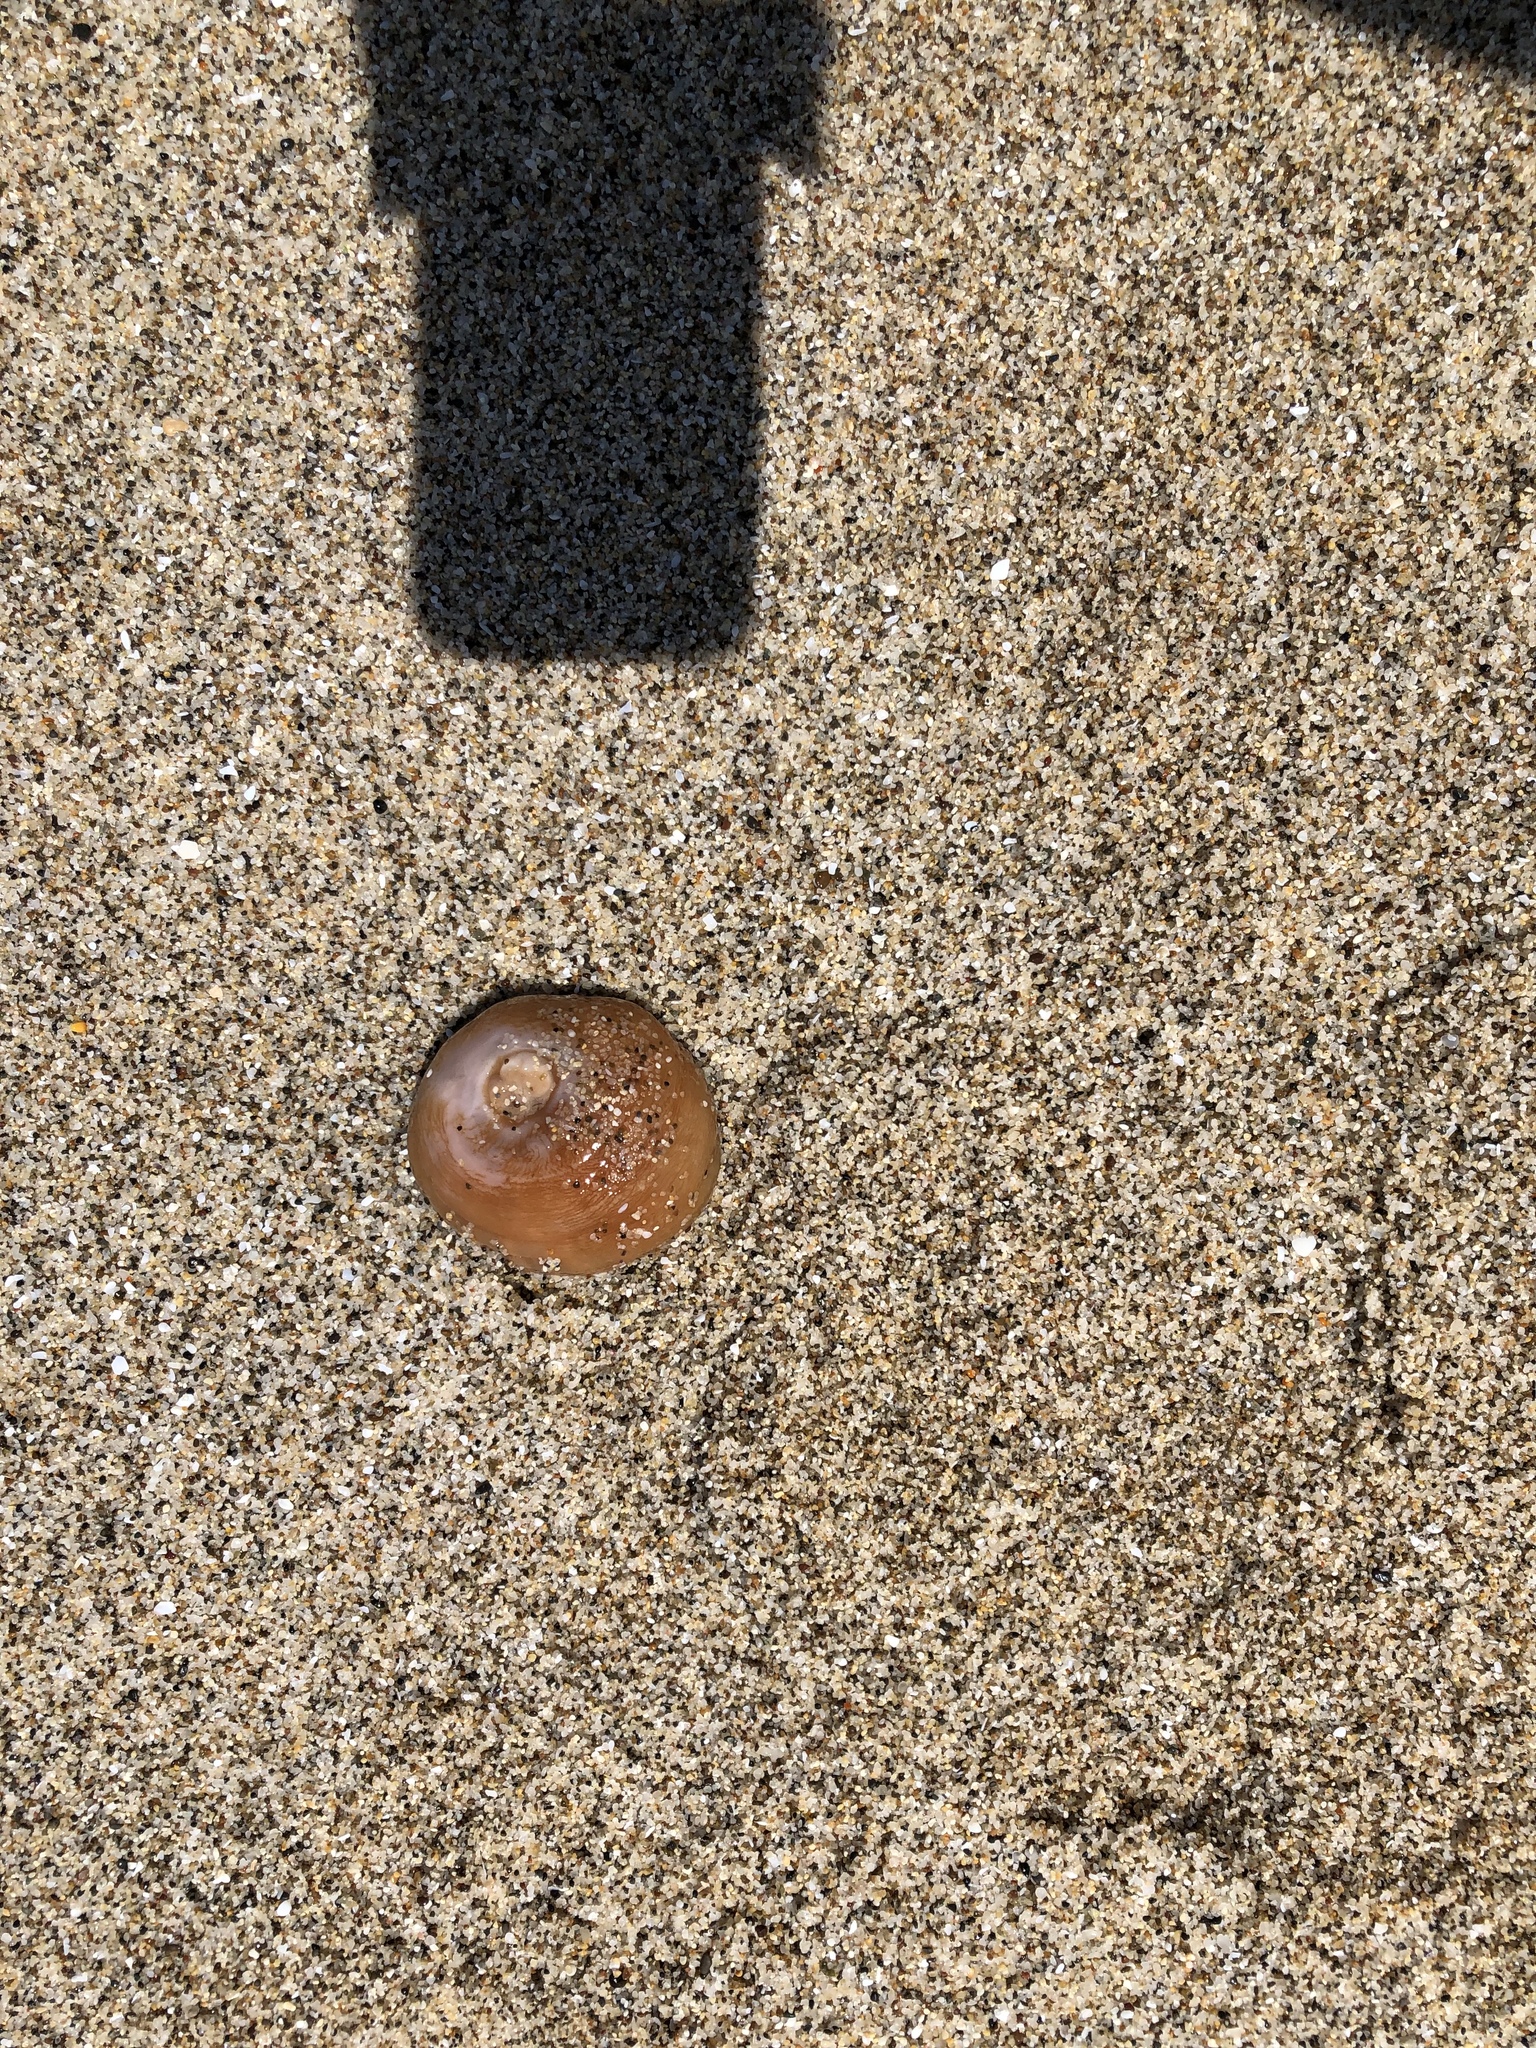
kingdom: Animalia
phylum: Cnidaria
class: Anthozoa
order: Actiniaria
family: Metridiidae
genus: Metridium
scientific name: Metridium senile
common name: Clonal plumose anemone
